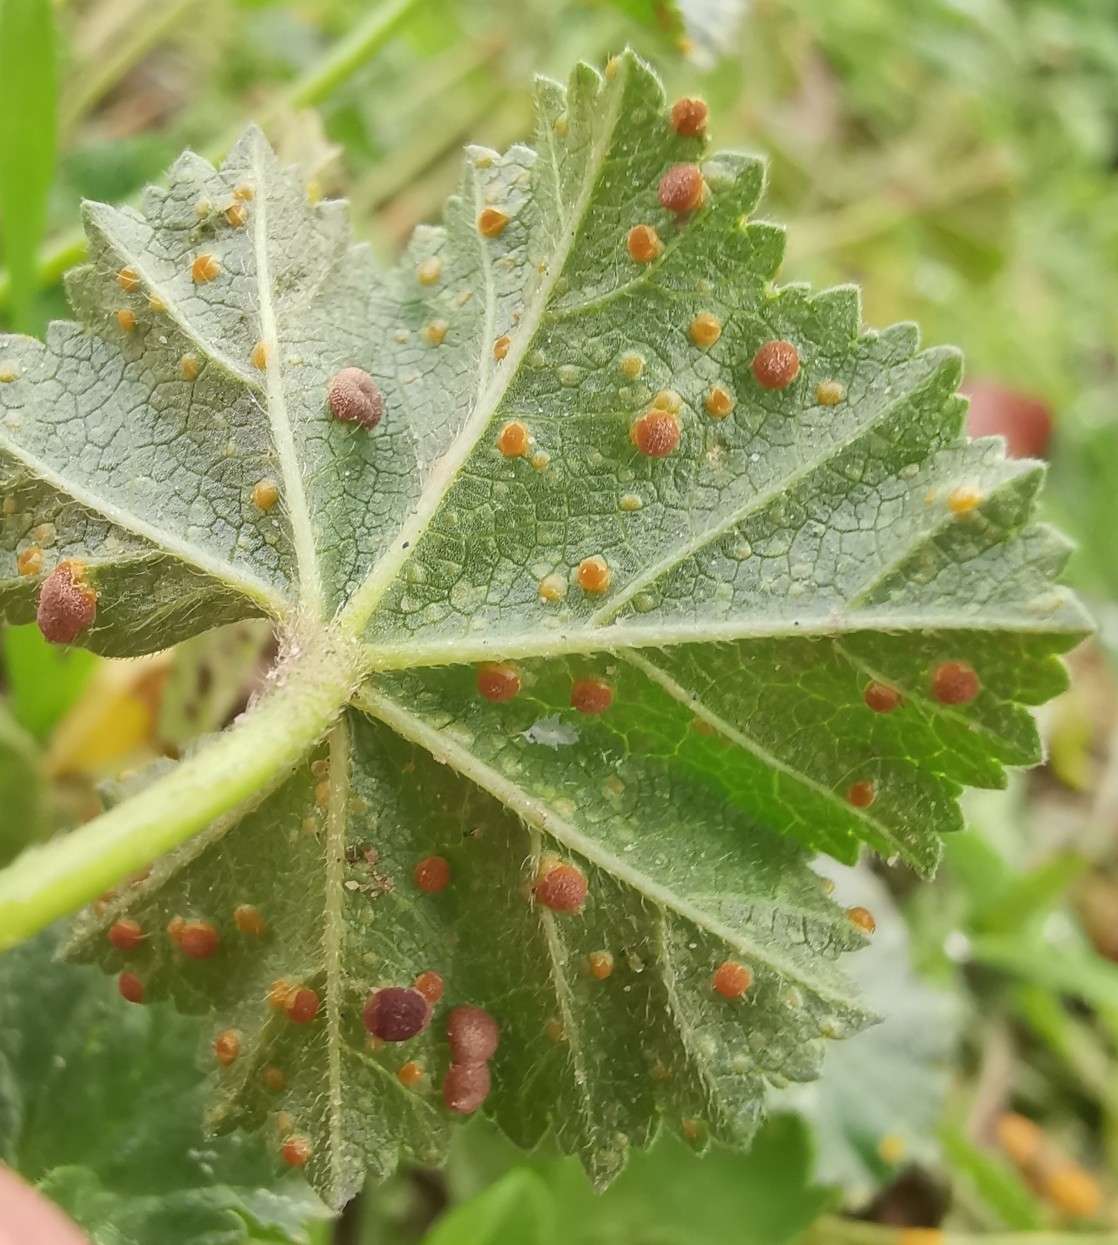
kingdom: Fungi
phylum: Basidiomycota
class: Pucciniomycetes
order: Pucciniales
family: Pucciniaceae
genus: Puccinia
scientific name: Puccinia malvacearum
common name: Hollyhock rust
